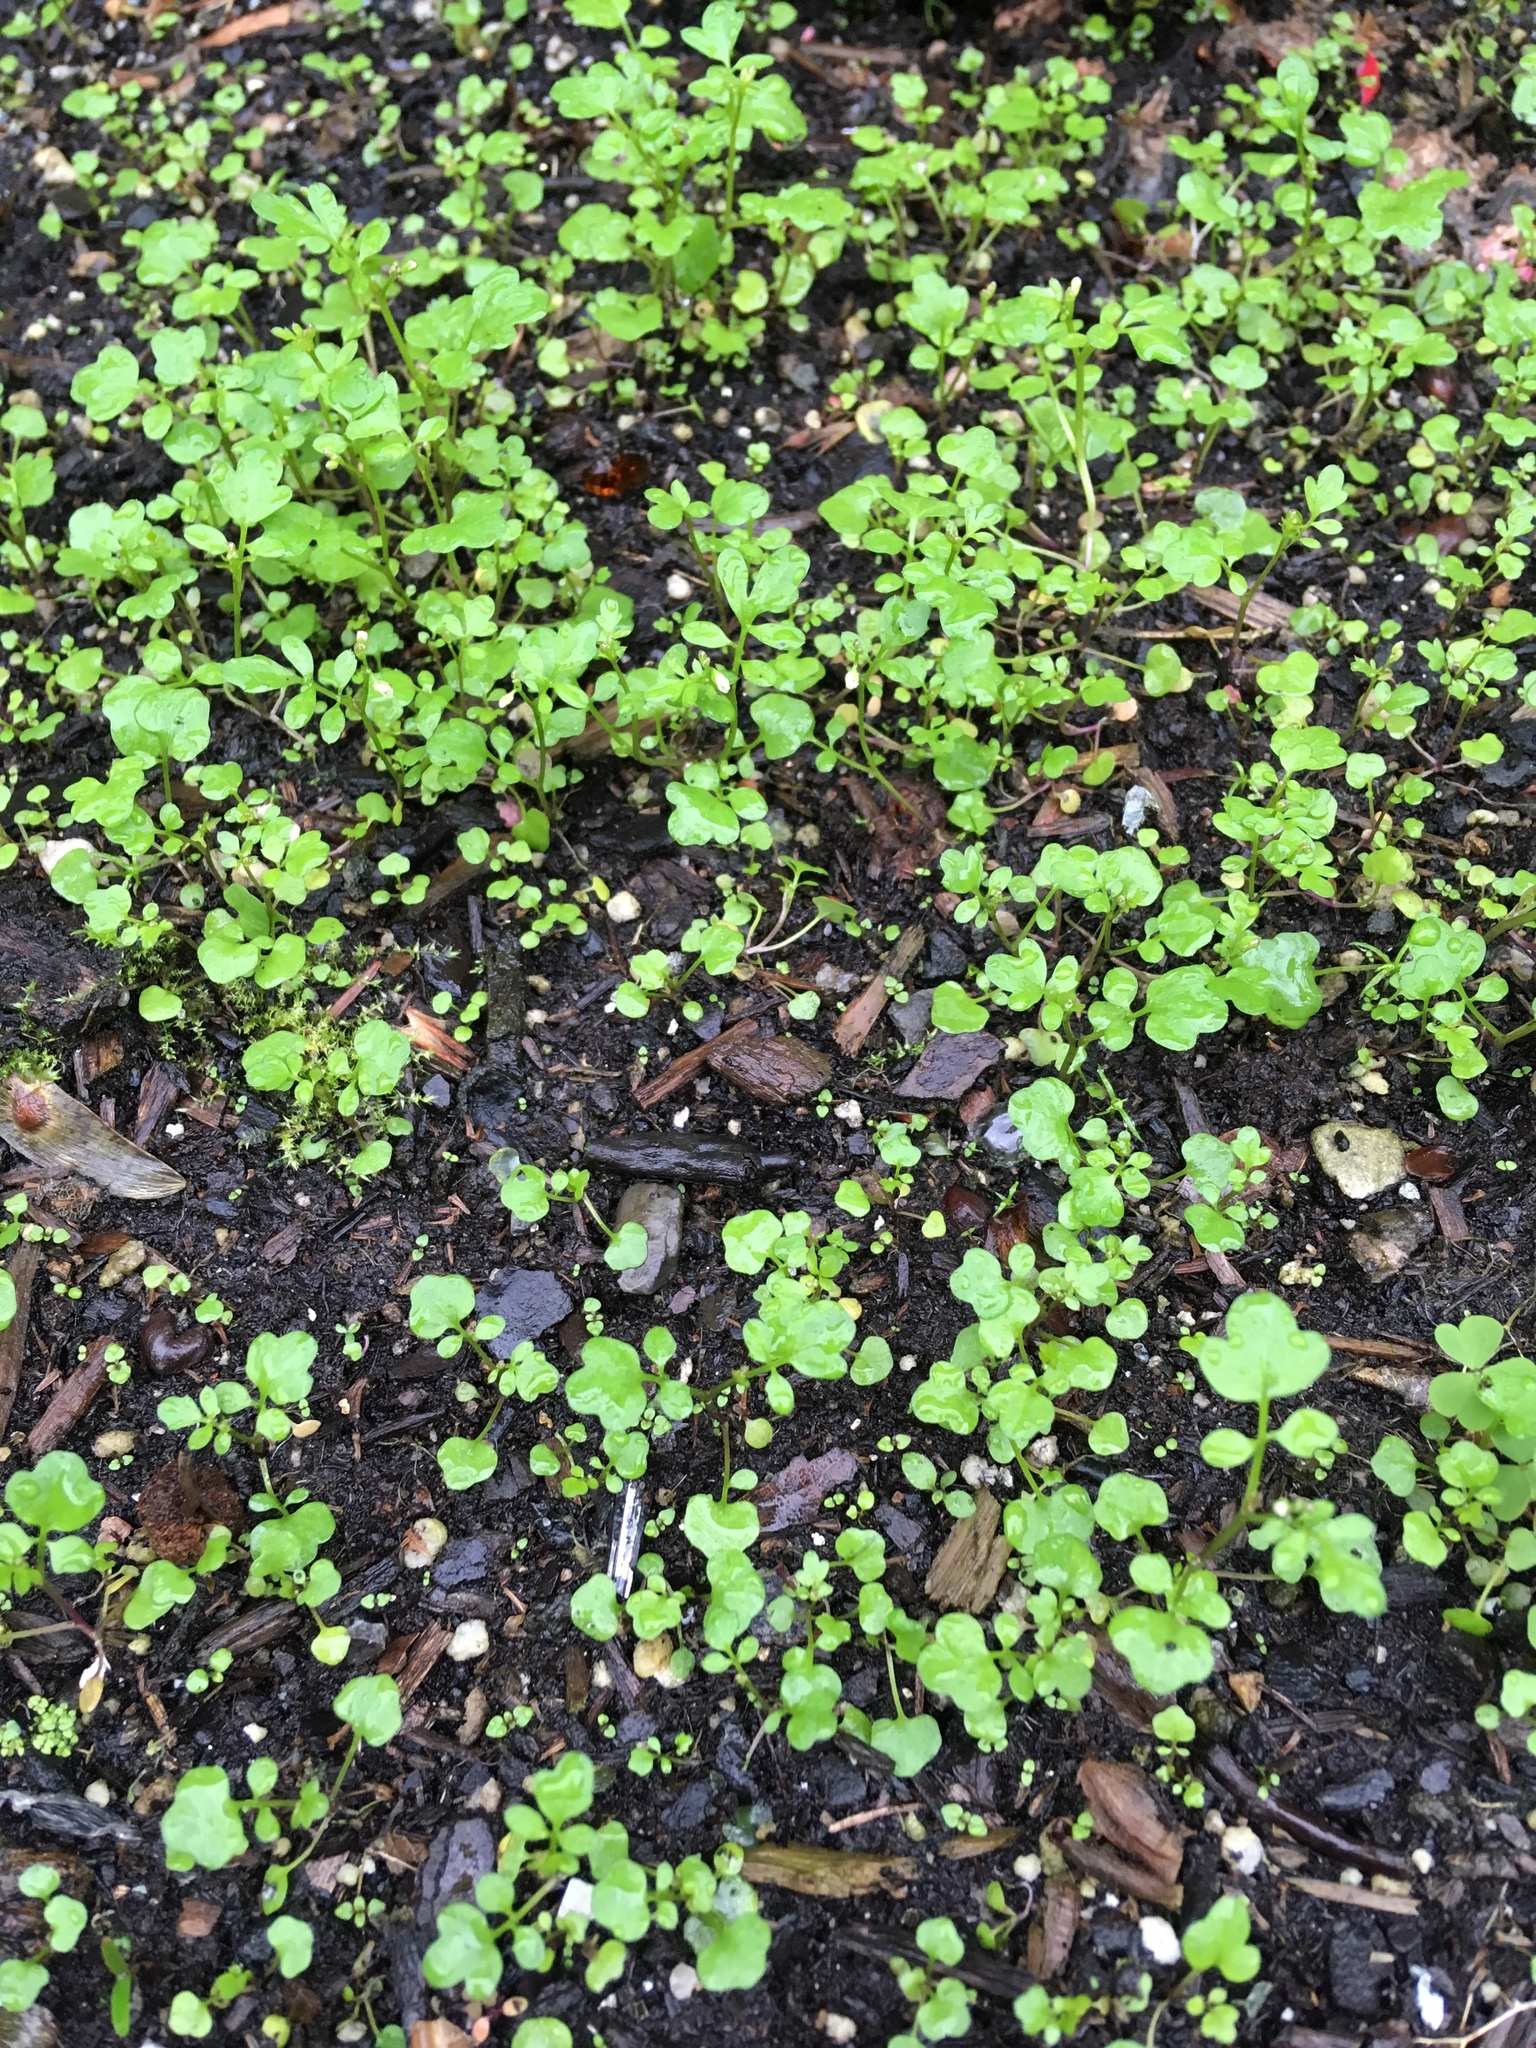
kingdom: Plantae
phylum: Tracheophyta
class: Magnoliopsida
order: Brassicales
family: Brassicaceae
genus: Cardamine
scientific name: Cardamine occulta
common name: Asian wavy bittercress
